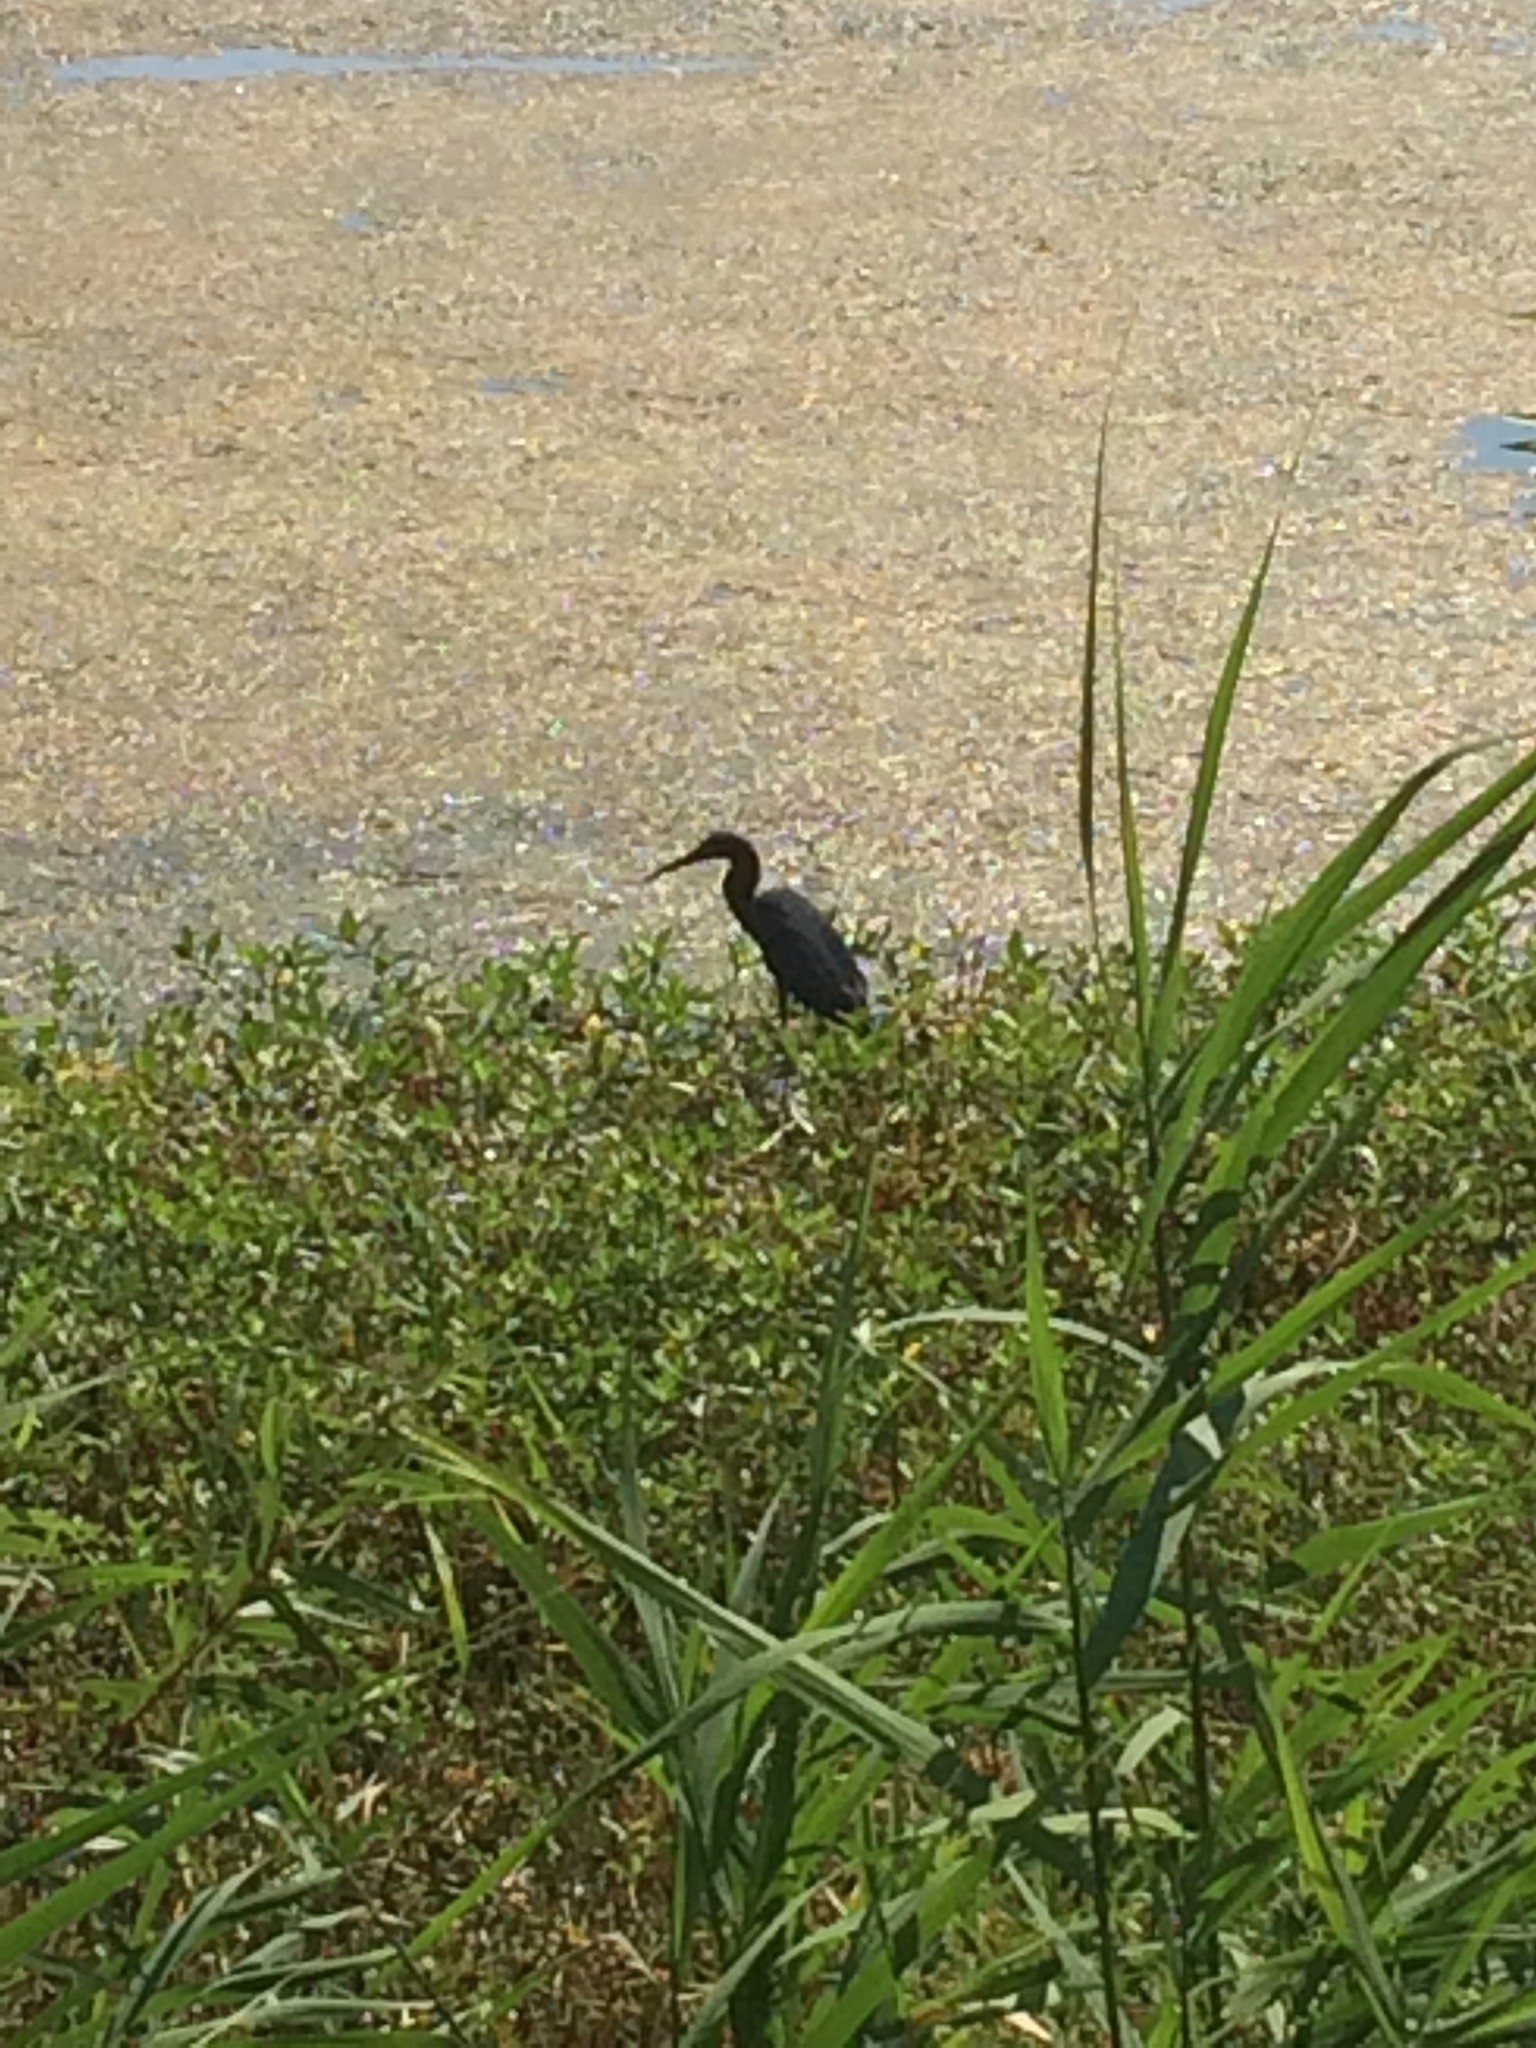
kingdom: Animalia
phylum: Chordata
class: Aves
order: Pelecaniformes
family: Ardeidae
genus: Egretta
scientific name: Egretta caerulea
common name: Little blue heron
